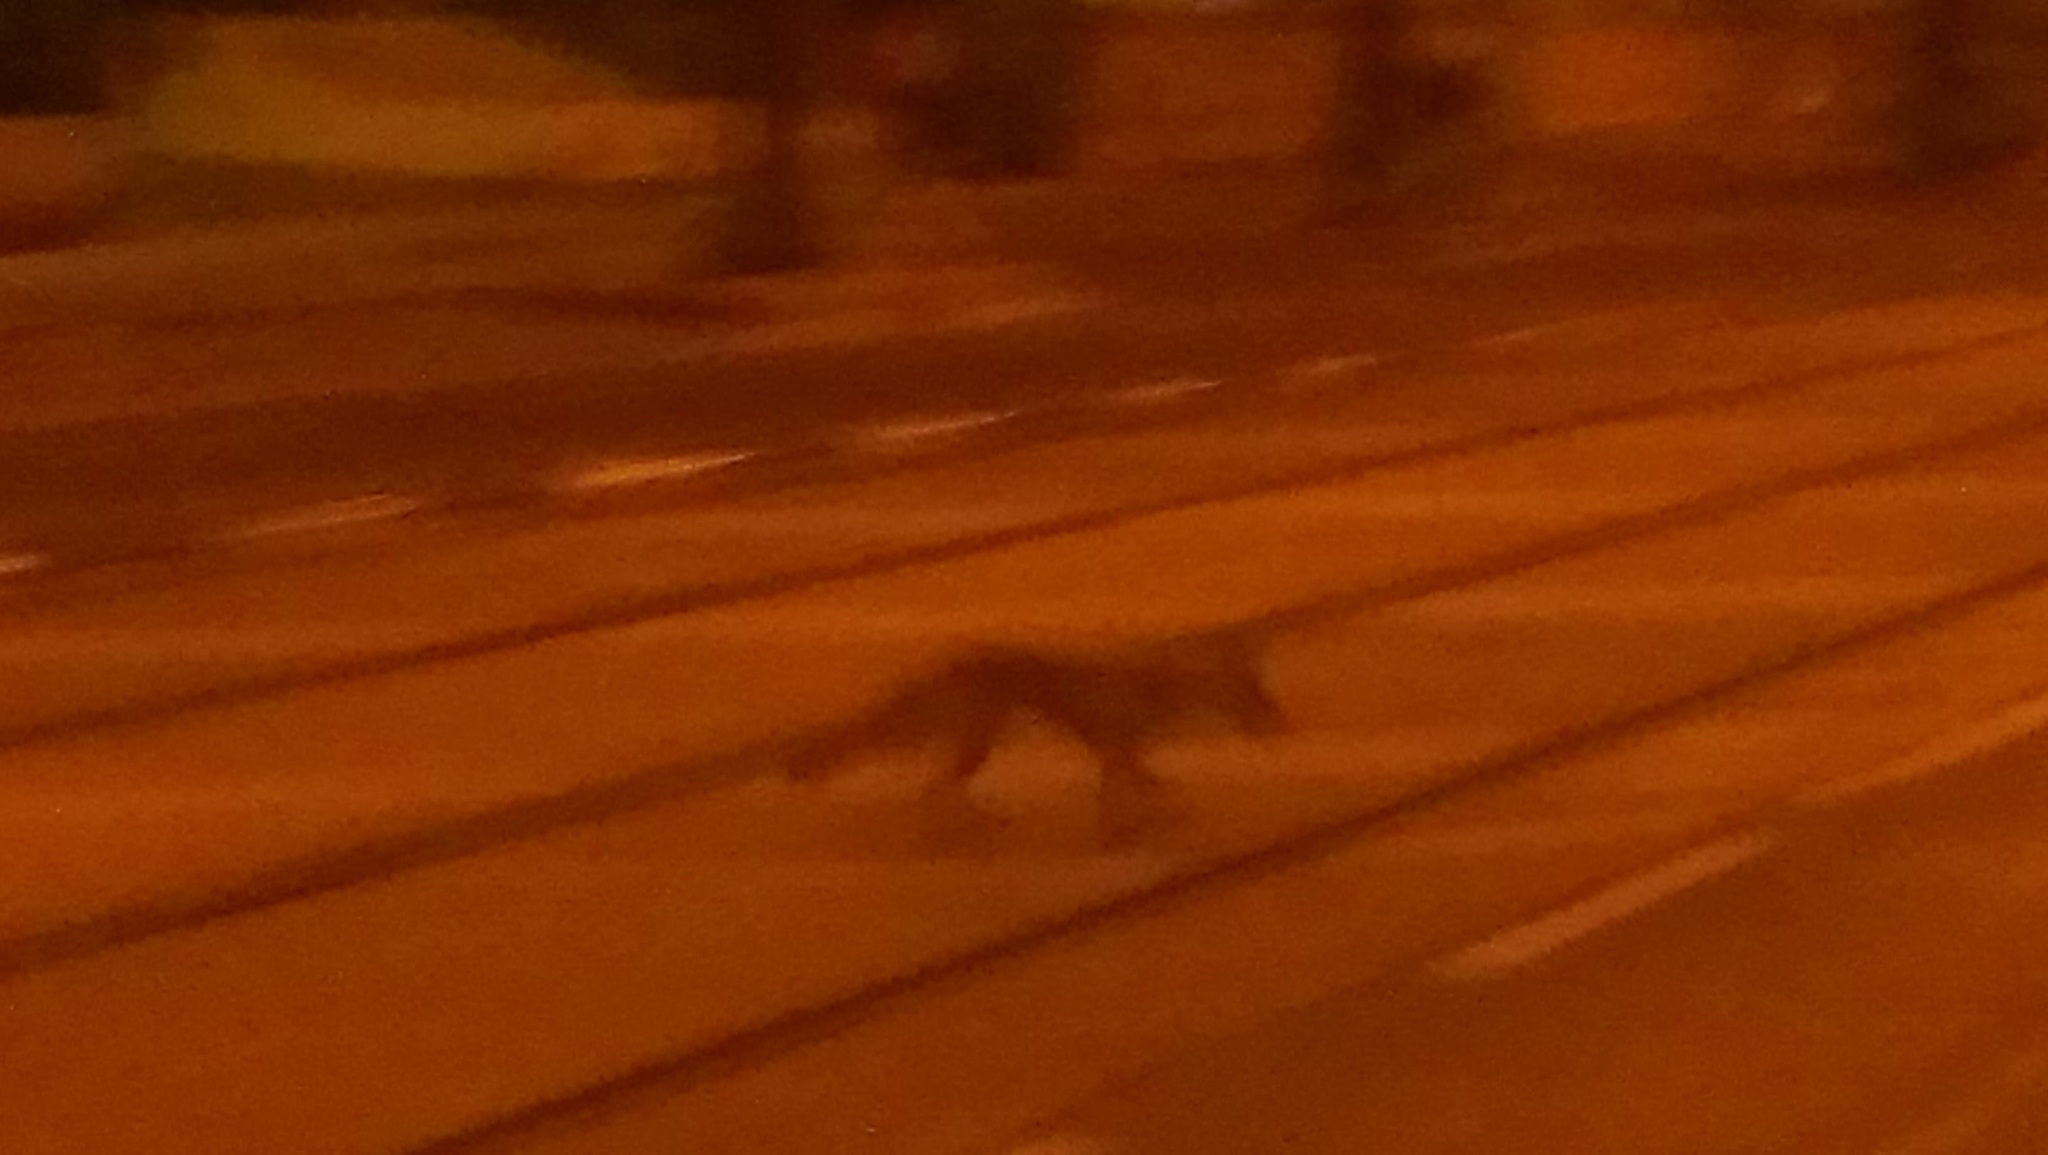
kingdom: Animalia
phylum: Chordata
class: Mammalia
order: Carnivora
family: Canidae
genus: Vulpes
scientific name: Vulpes vulpes
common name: Red fox
